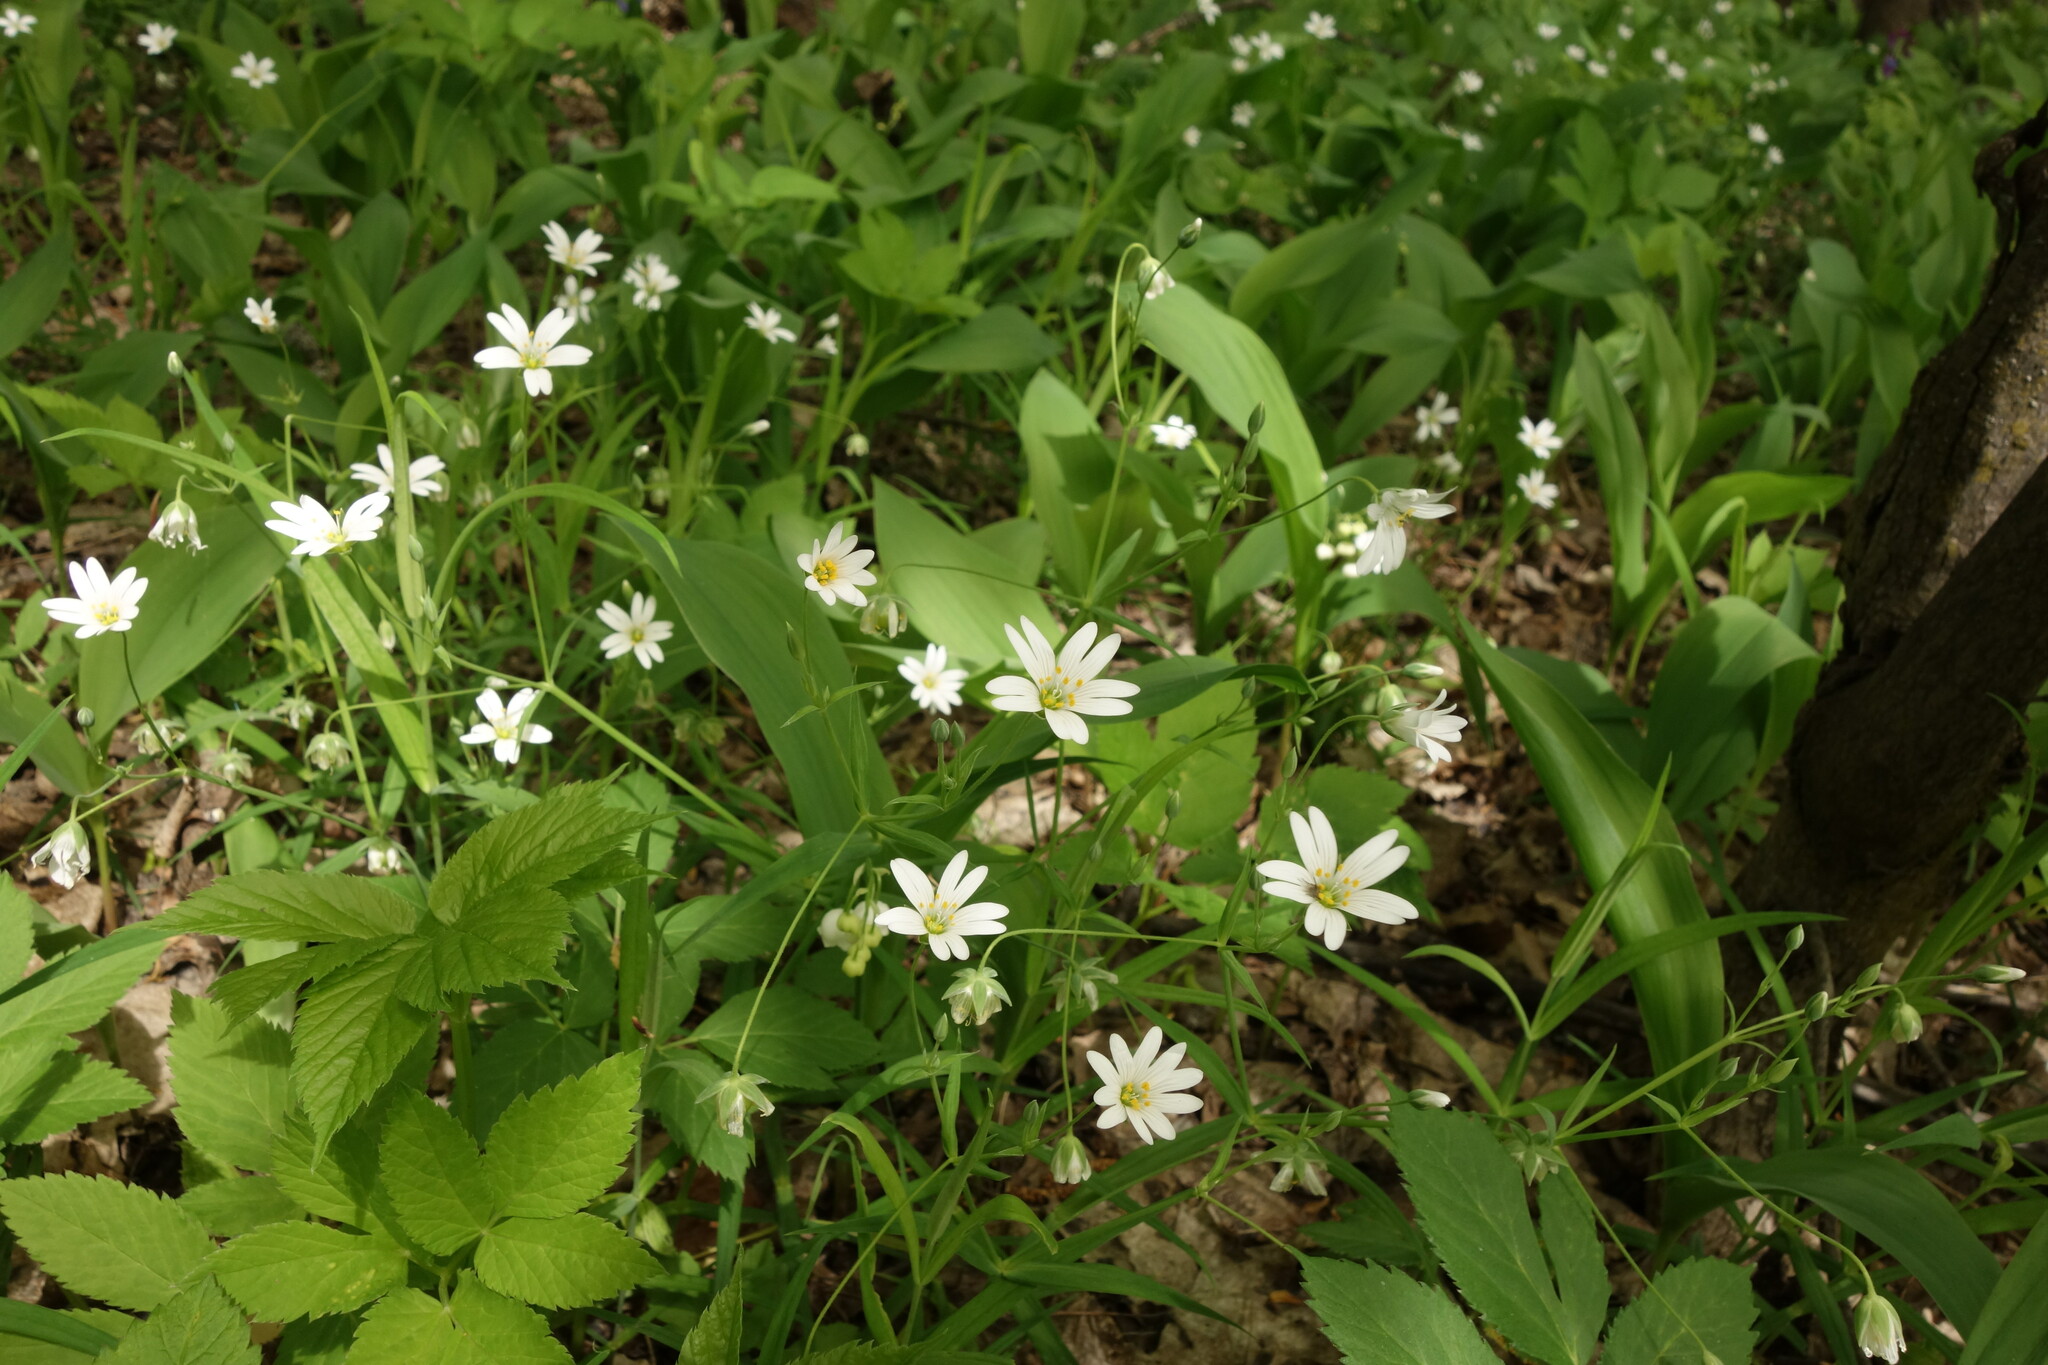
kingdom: Plantae
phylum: Tracheophyta
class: Magnoliopsida
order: Caryophyllales
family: Caryophyllaceae
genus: Rabelera
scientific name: Rabelera holostea
